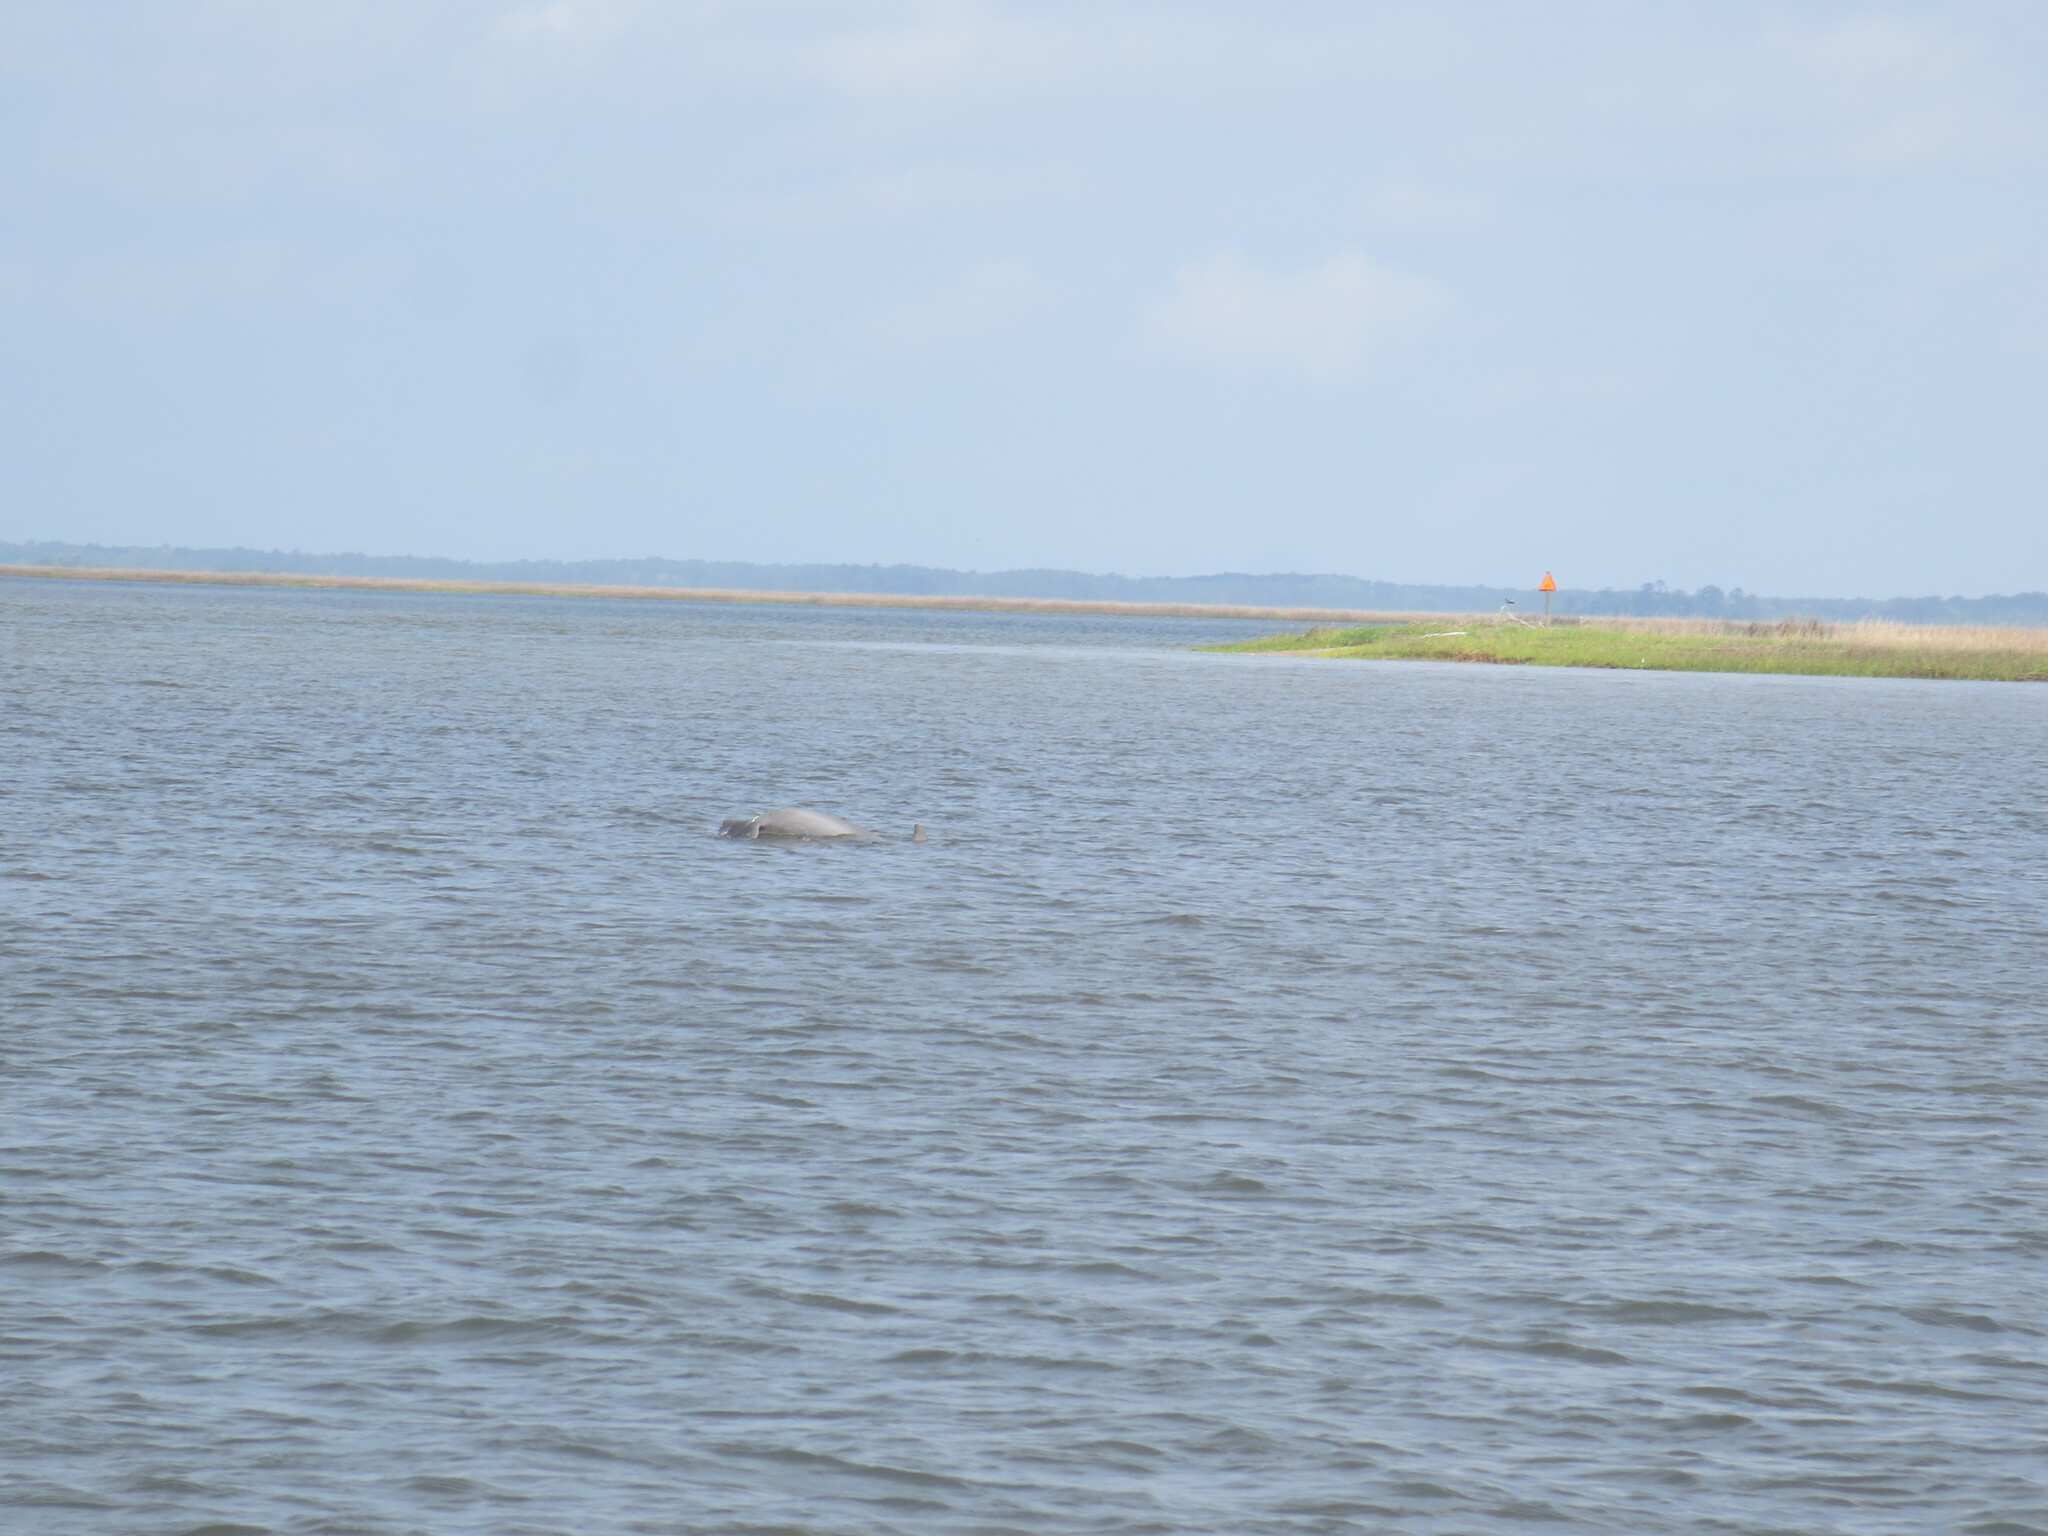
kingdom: Animalia
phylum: Chordata
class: Mammalia
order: Cetacea
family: Delphinidae
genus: Tursiops
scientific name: Tursiops truncatus
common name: Bottlenose dolphin
